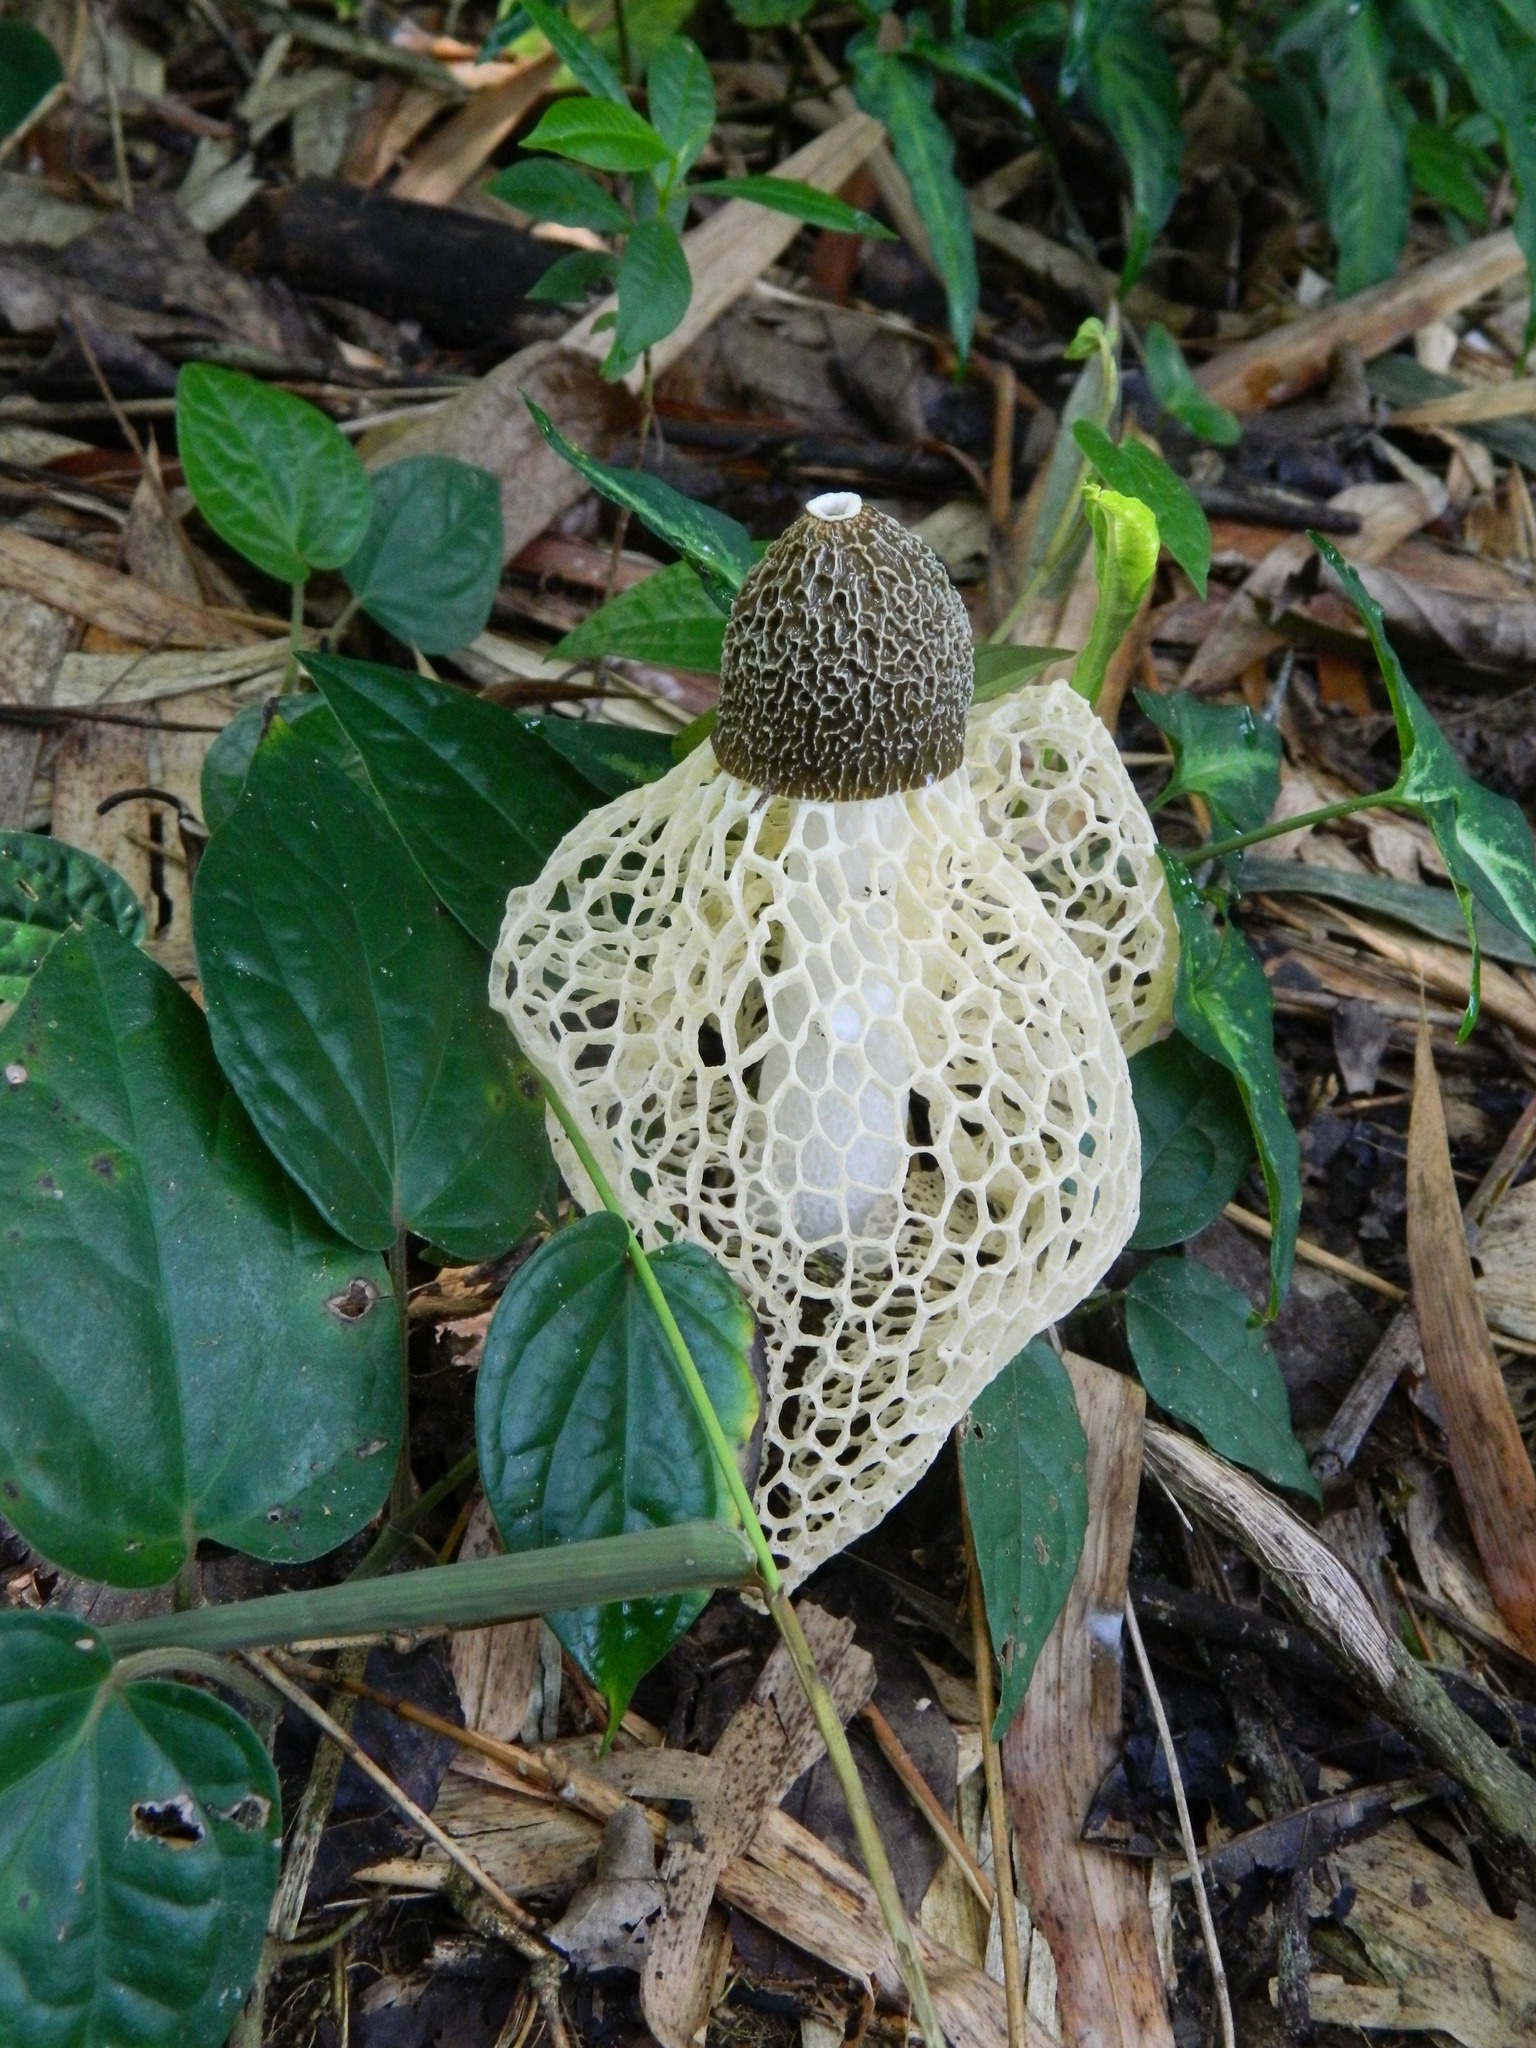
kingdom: Fungi
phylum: Basidiomycota
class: Agaricomycetes
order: Phallales
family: Phallaceae
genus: Phallus
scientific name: Phallus lutescens
